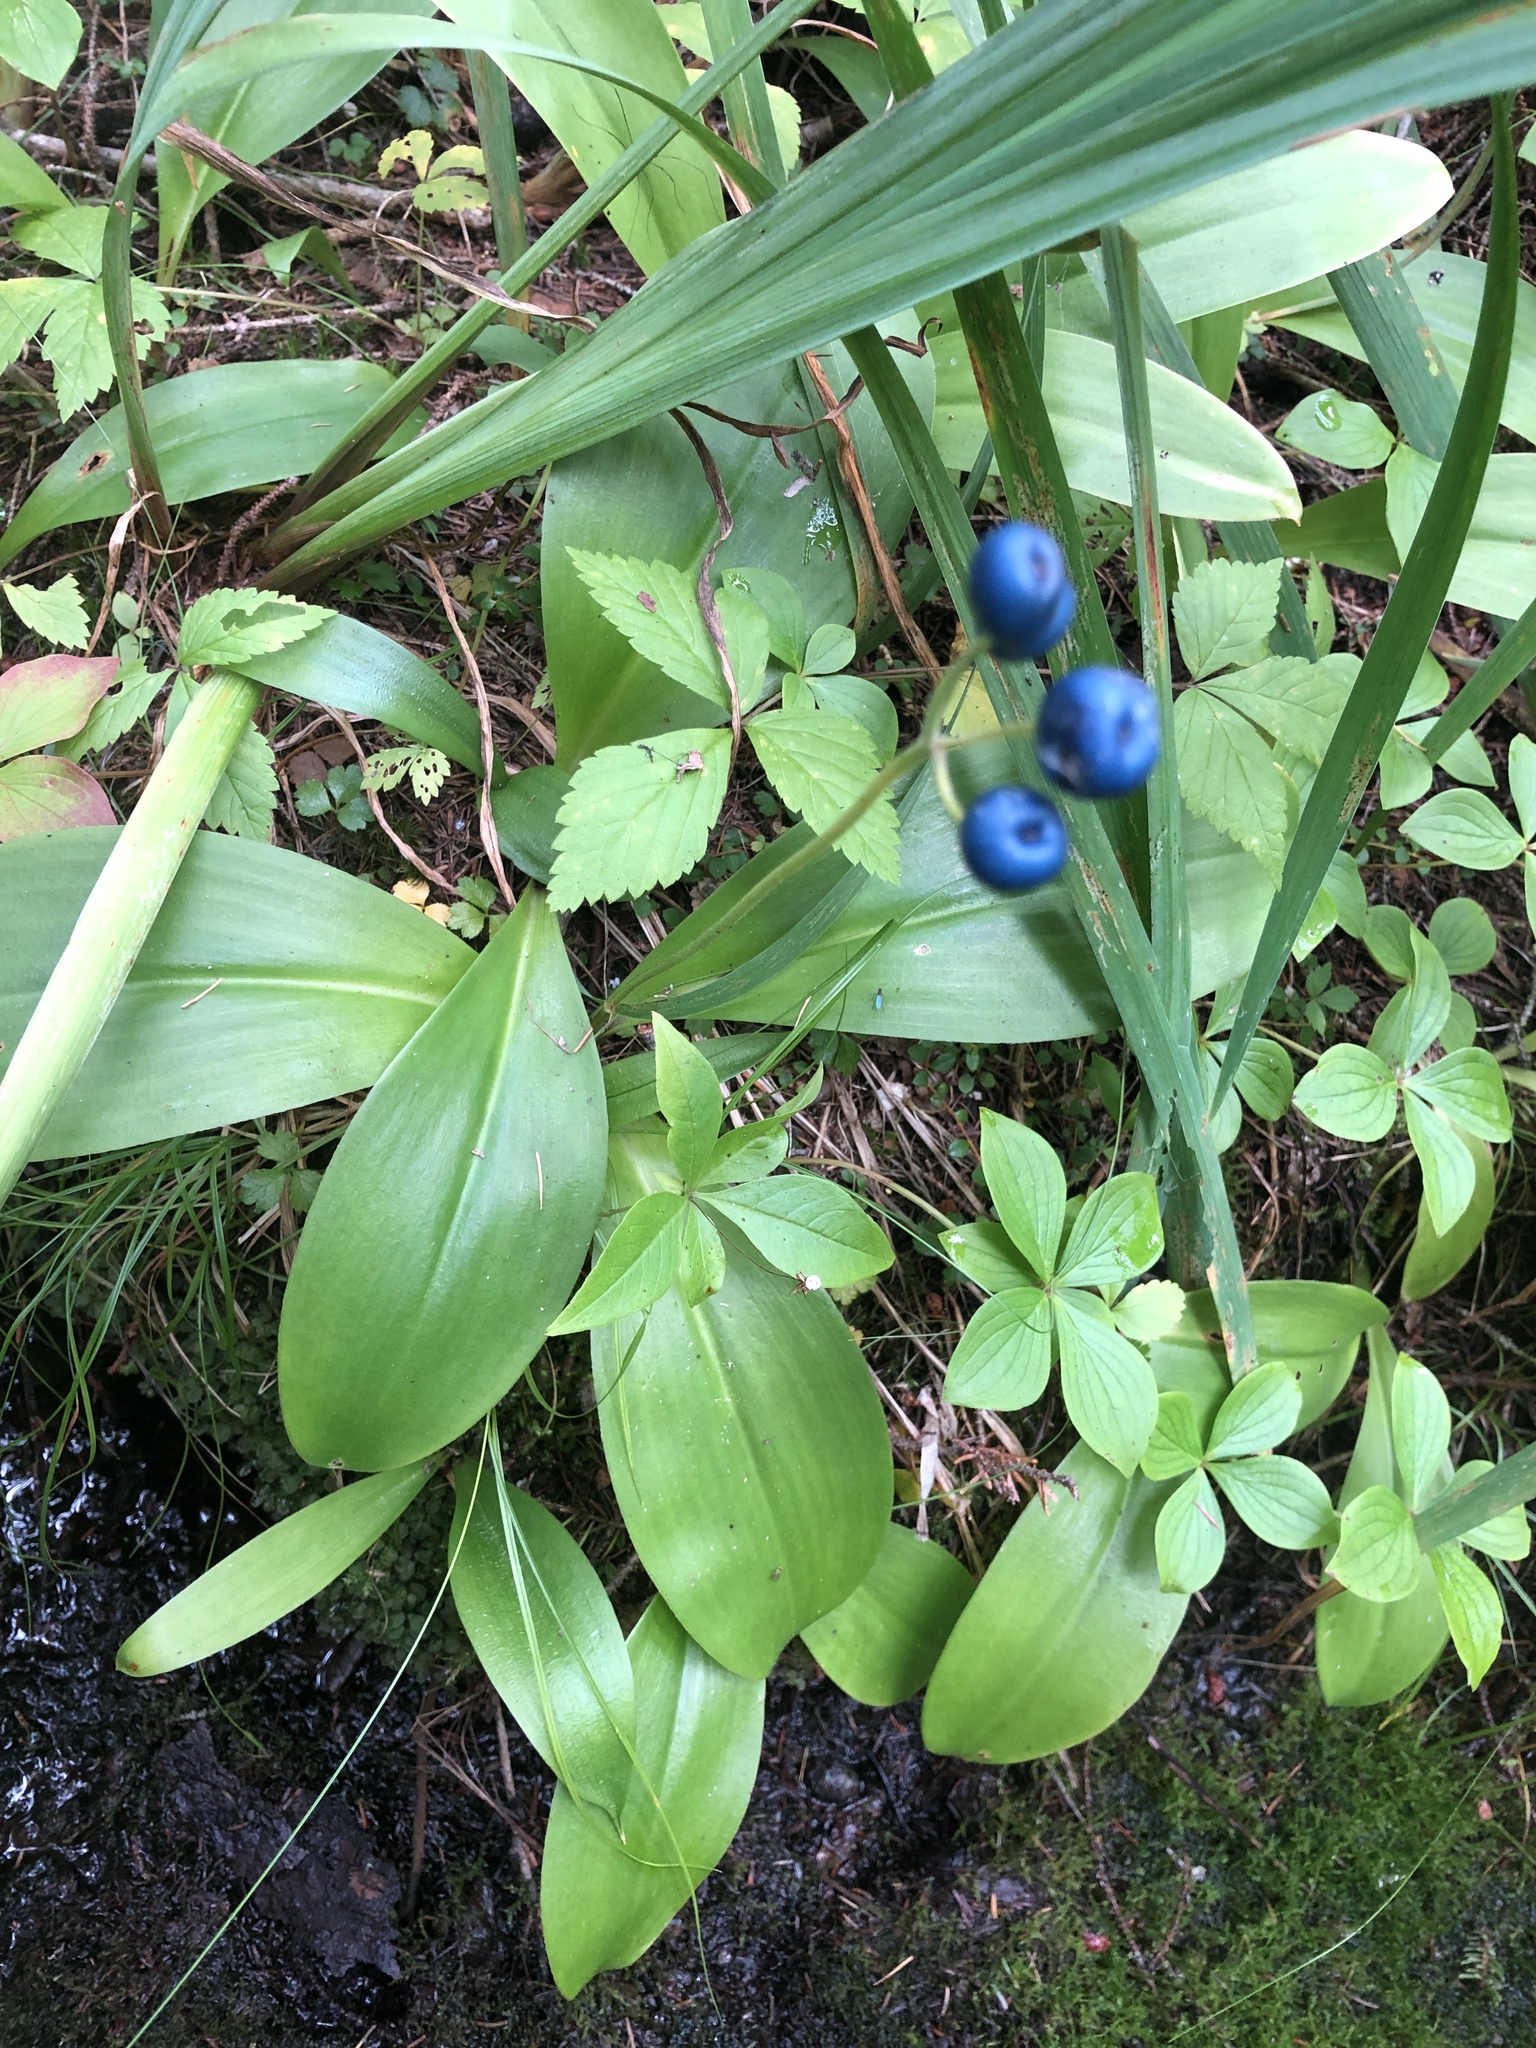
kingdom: Plantae
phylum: Tracheophyta
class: Liliopsida
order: Liliales
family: Liliaceae
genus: Clintonia
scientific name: Clintonia borealis
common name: Yellow clintonia
